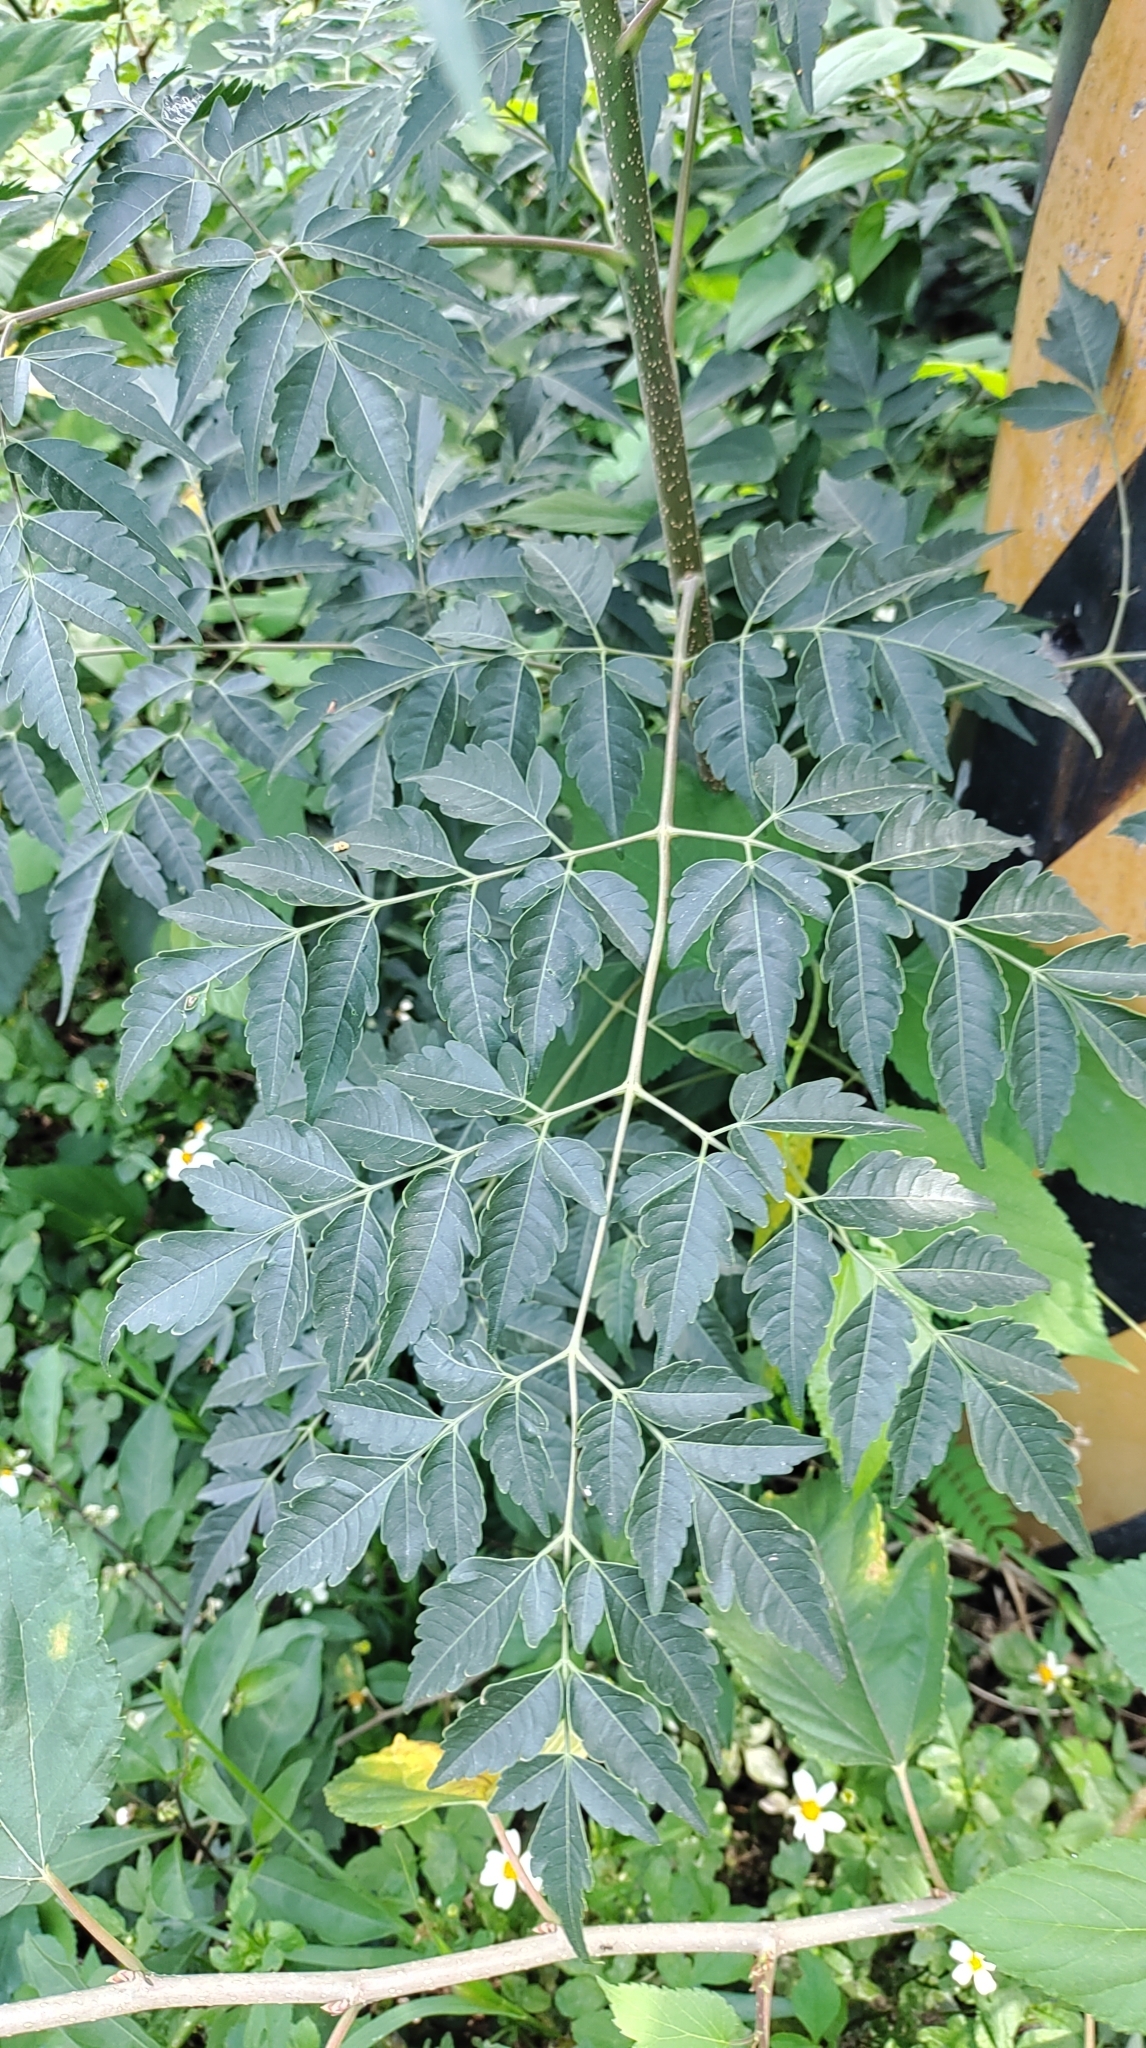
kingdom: Plantae
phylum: Tracheophyta
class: Magnoliopsida
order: Sapindales
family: Sapindaceae
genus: Koelreuteria
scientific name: Koelreuteria elegans
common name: Chinese flame tree
